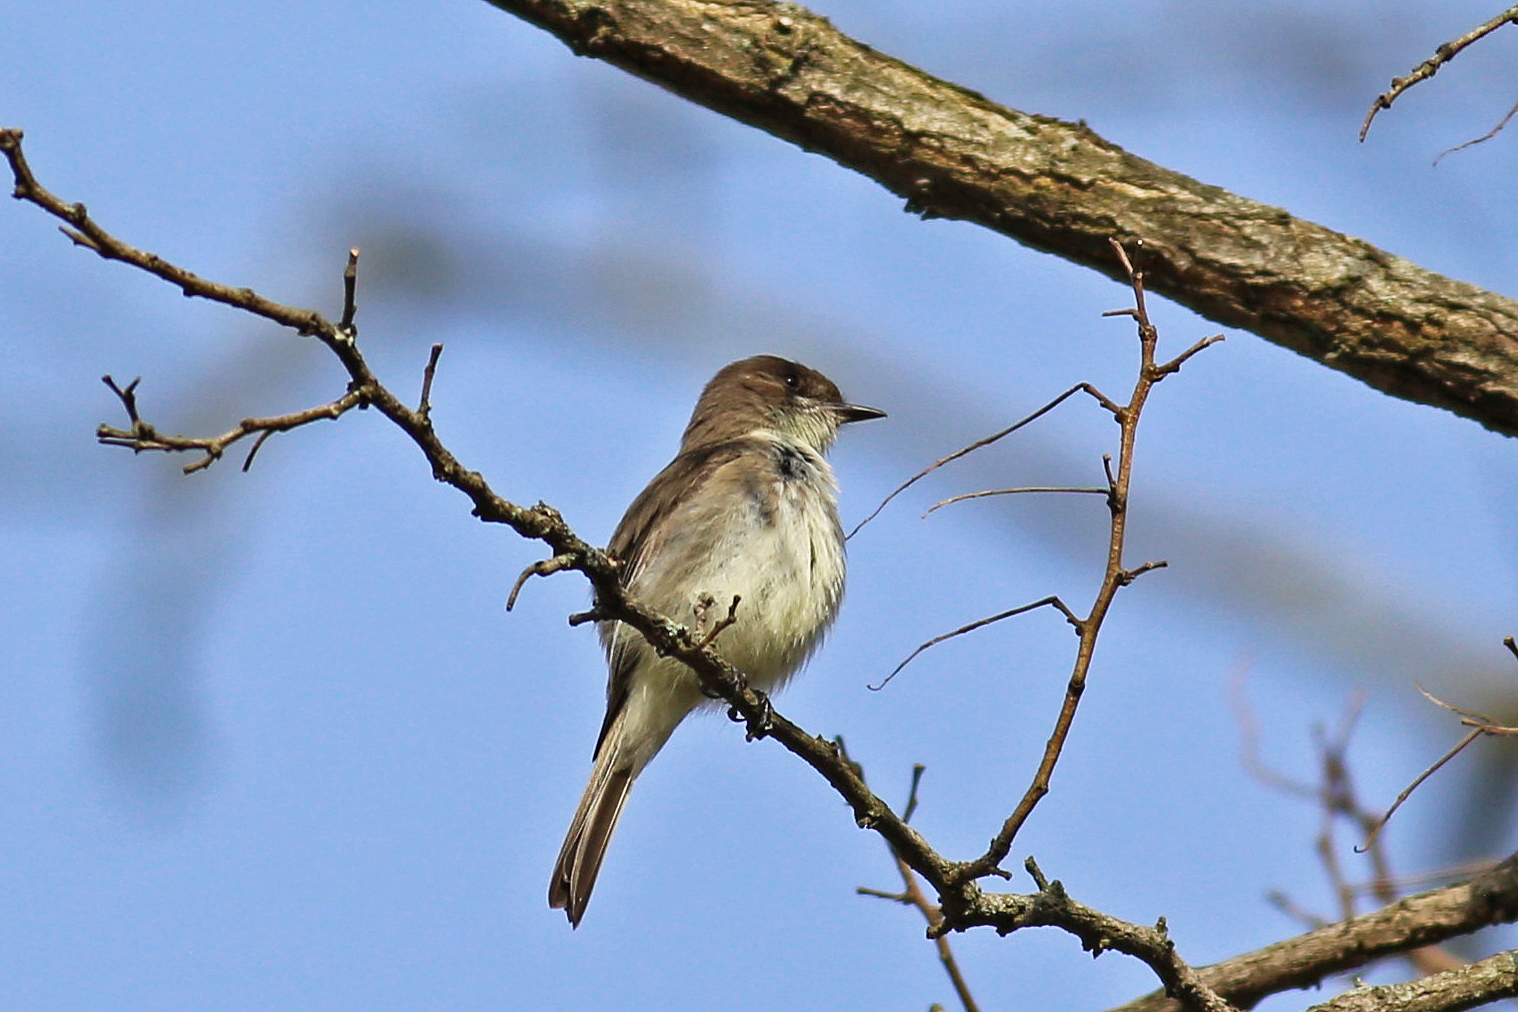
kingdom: Animalia
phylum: Chordata
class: Aves
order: Passeriformes
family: Tyrannidae
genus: Sayornis
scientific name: Sayornis phoebe
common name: Eastern phoebe
